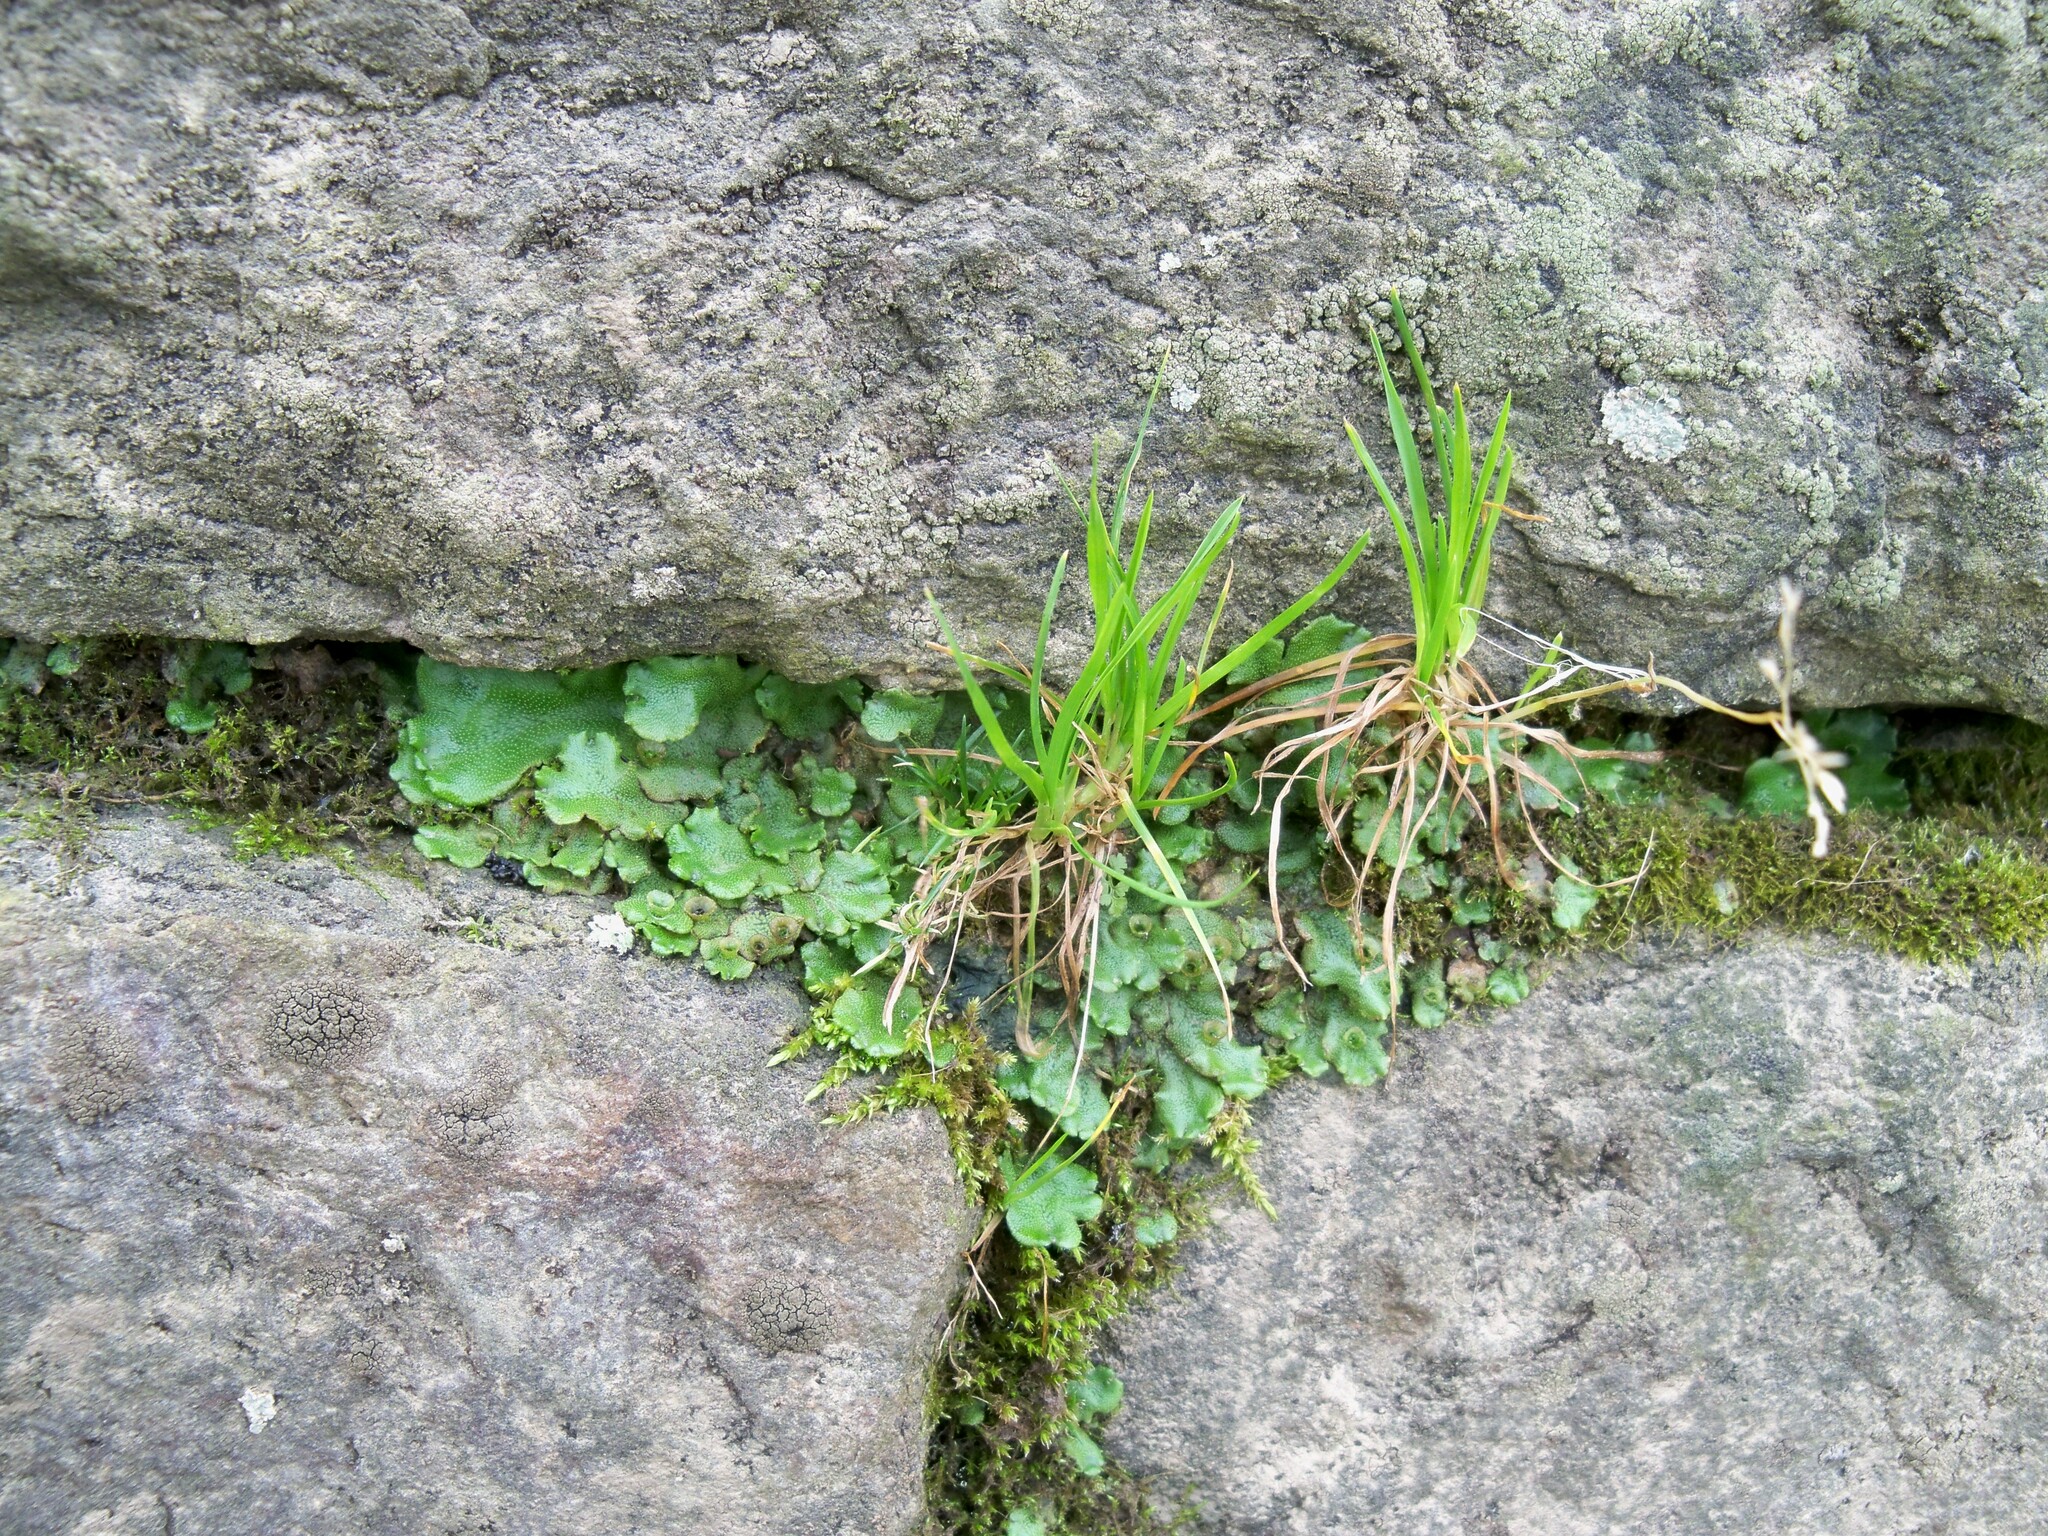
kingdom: Plantae
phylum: Marchantiophyta
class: Marchantiopsida
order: Marchantiales
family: Marchantiaceae
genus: Marchantia
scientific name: Marchantia polymorpha
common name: Common liverwort
